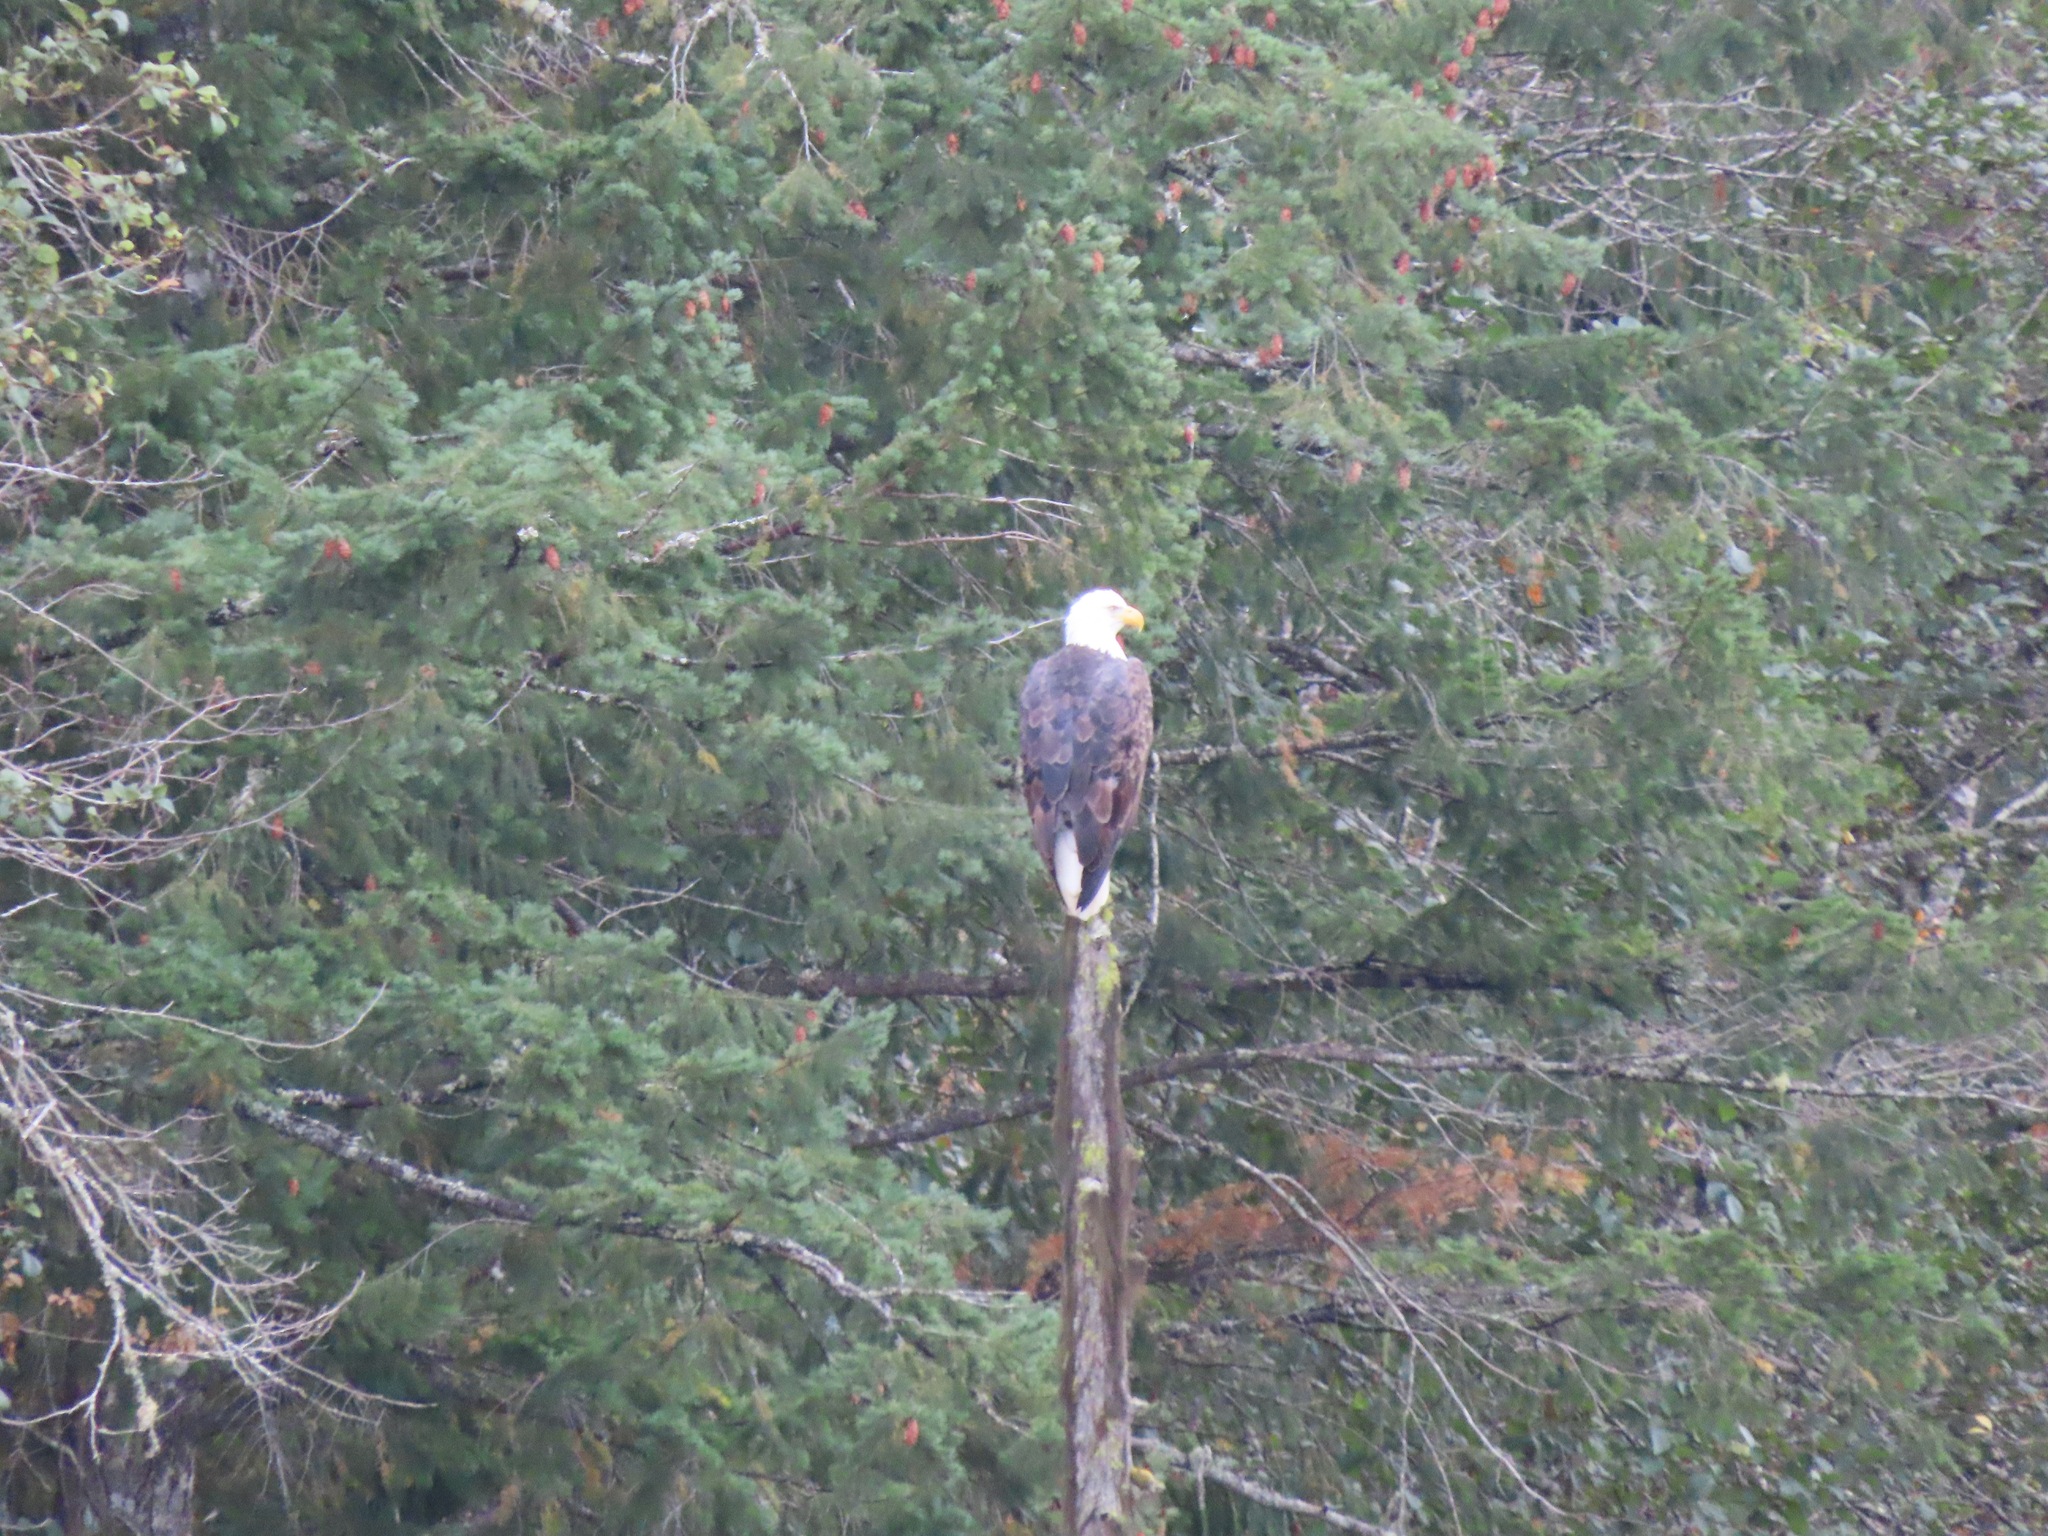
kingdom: Animalia
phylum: Chordata
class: Aves
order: Accipitriformes
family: Accipitridae
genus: Haliaeetus
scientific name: Haliaeetus leucocephalus
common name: Bald eagle
